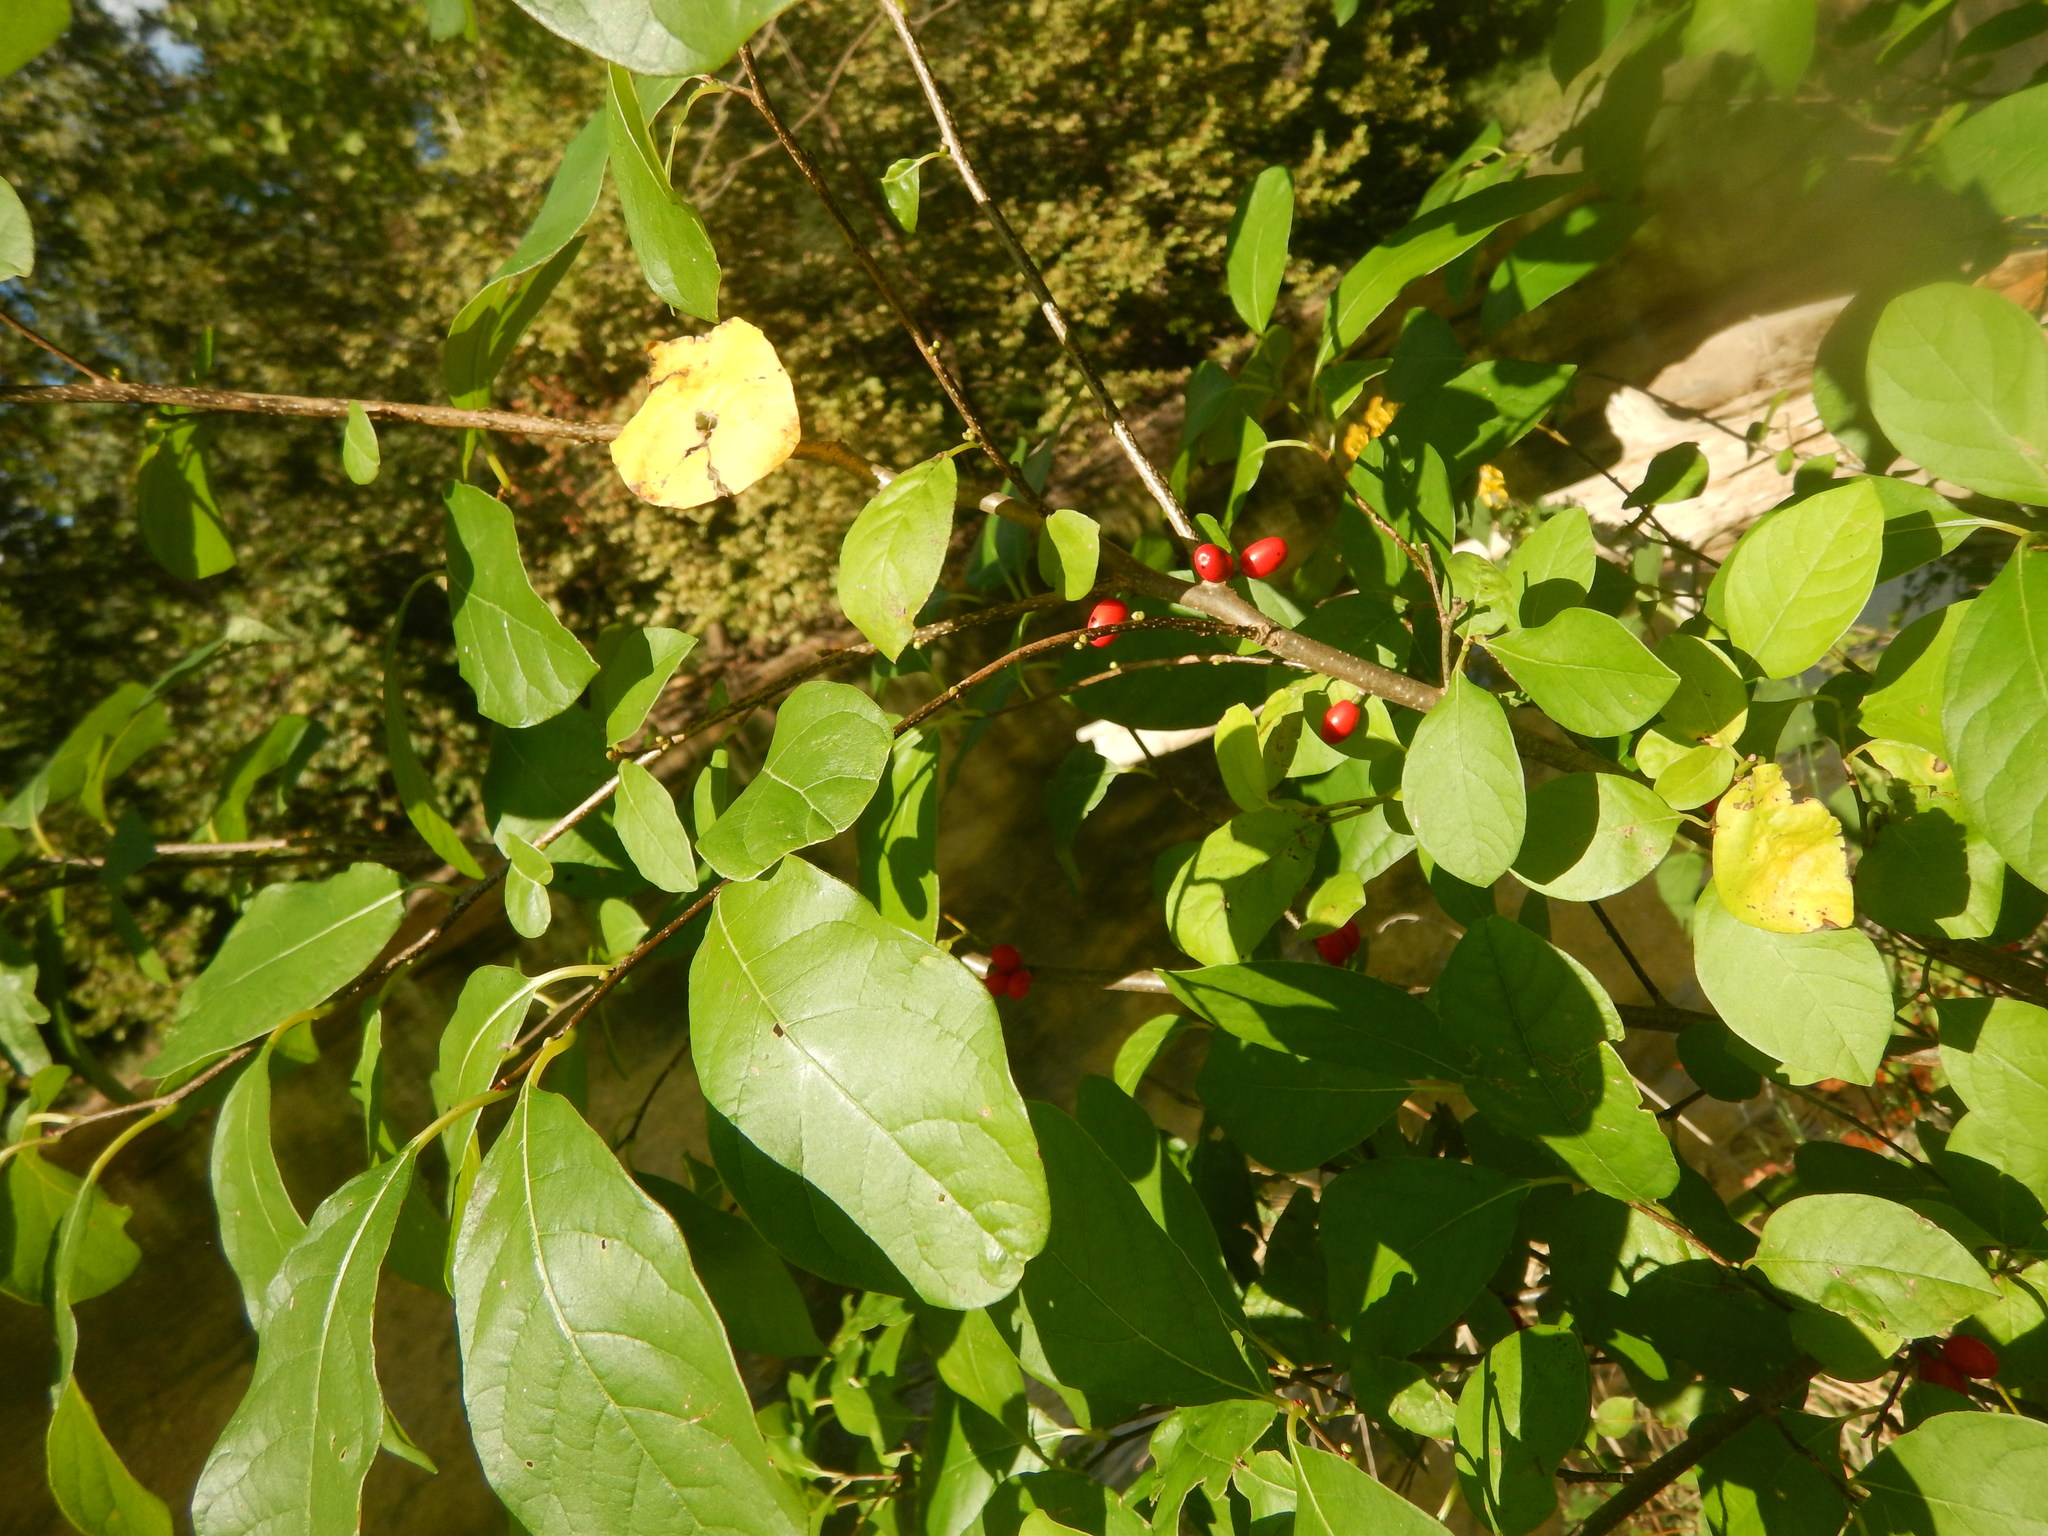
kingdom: Plantae
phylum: Tracheophyta
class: Magnoliopsida
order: Laurales
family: Lauraceae
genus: Lindera
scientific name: Lindera benzoin
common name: Spicebush
